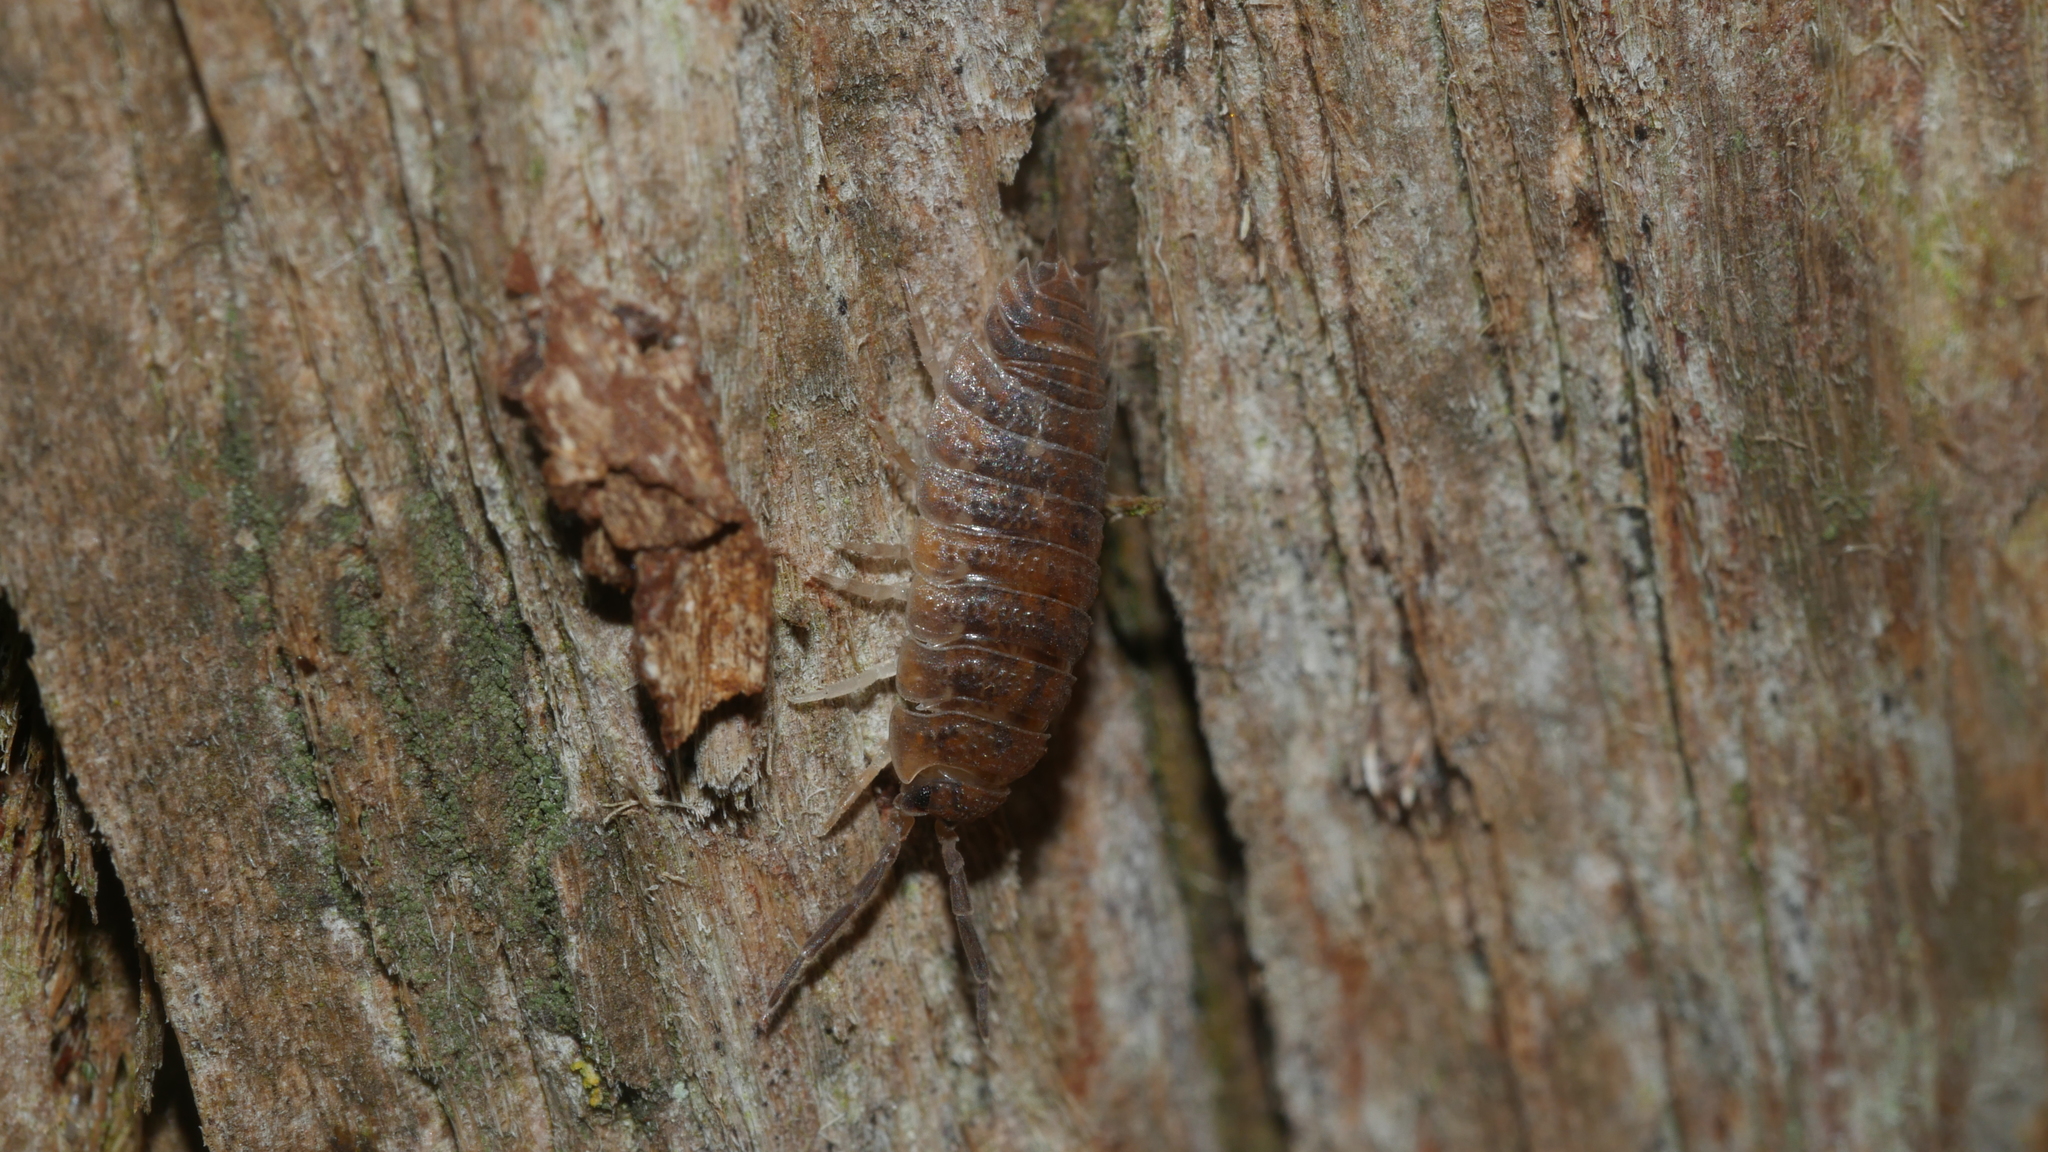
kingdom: Animalia
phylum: Arthropoda
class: Malacostraca
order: Isopoda
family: Porcellionidae
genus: Porcellio
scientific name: Porcellio scaber
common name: Common rough woodlouse
